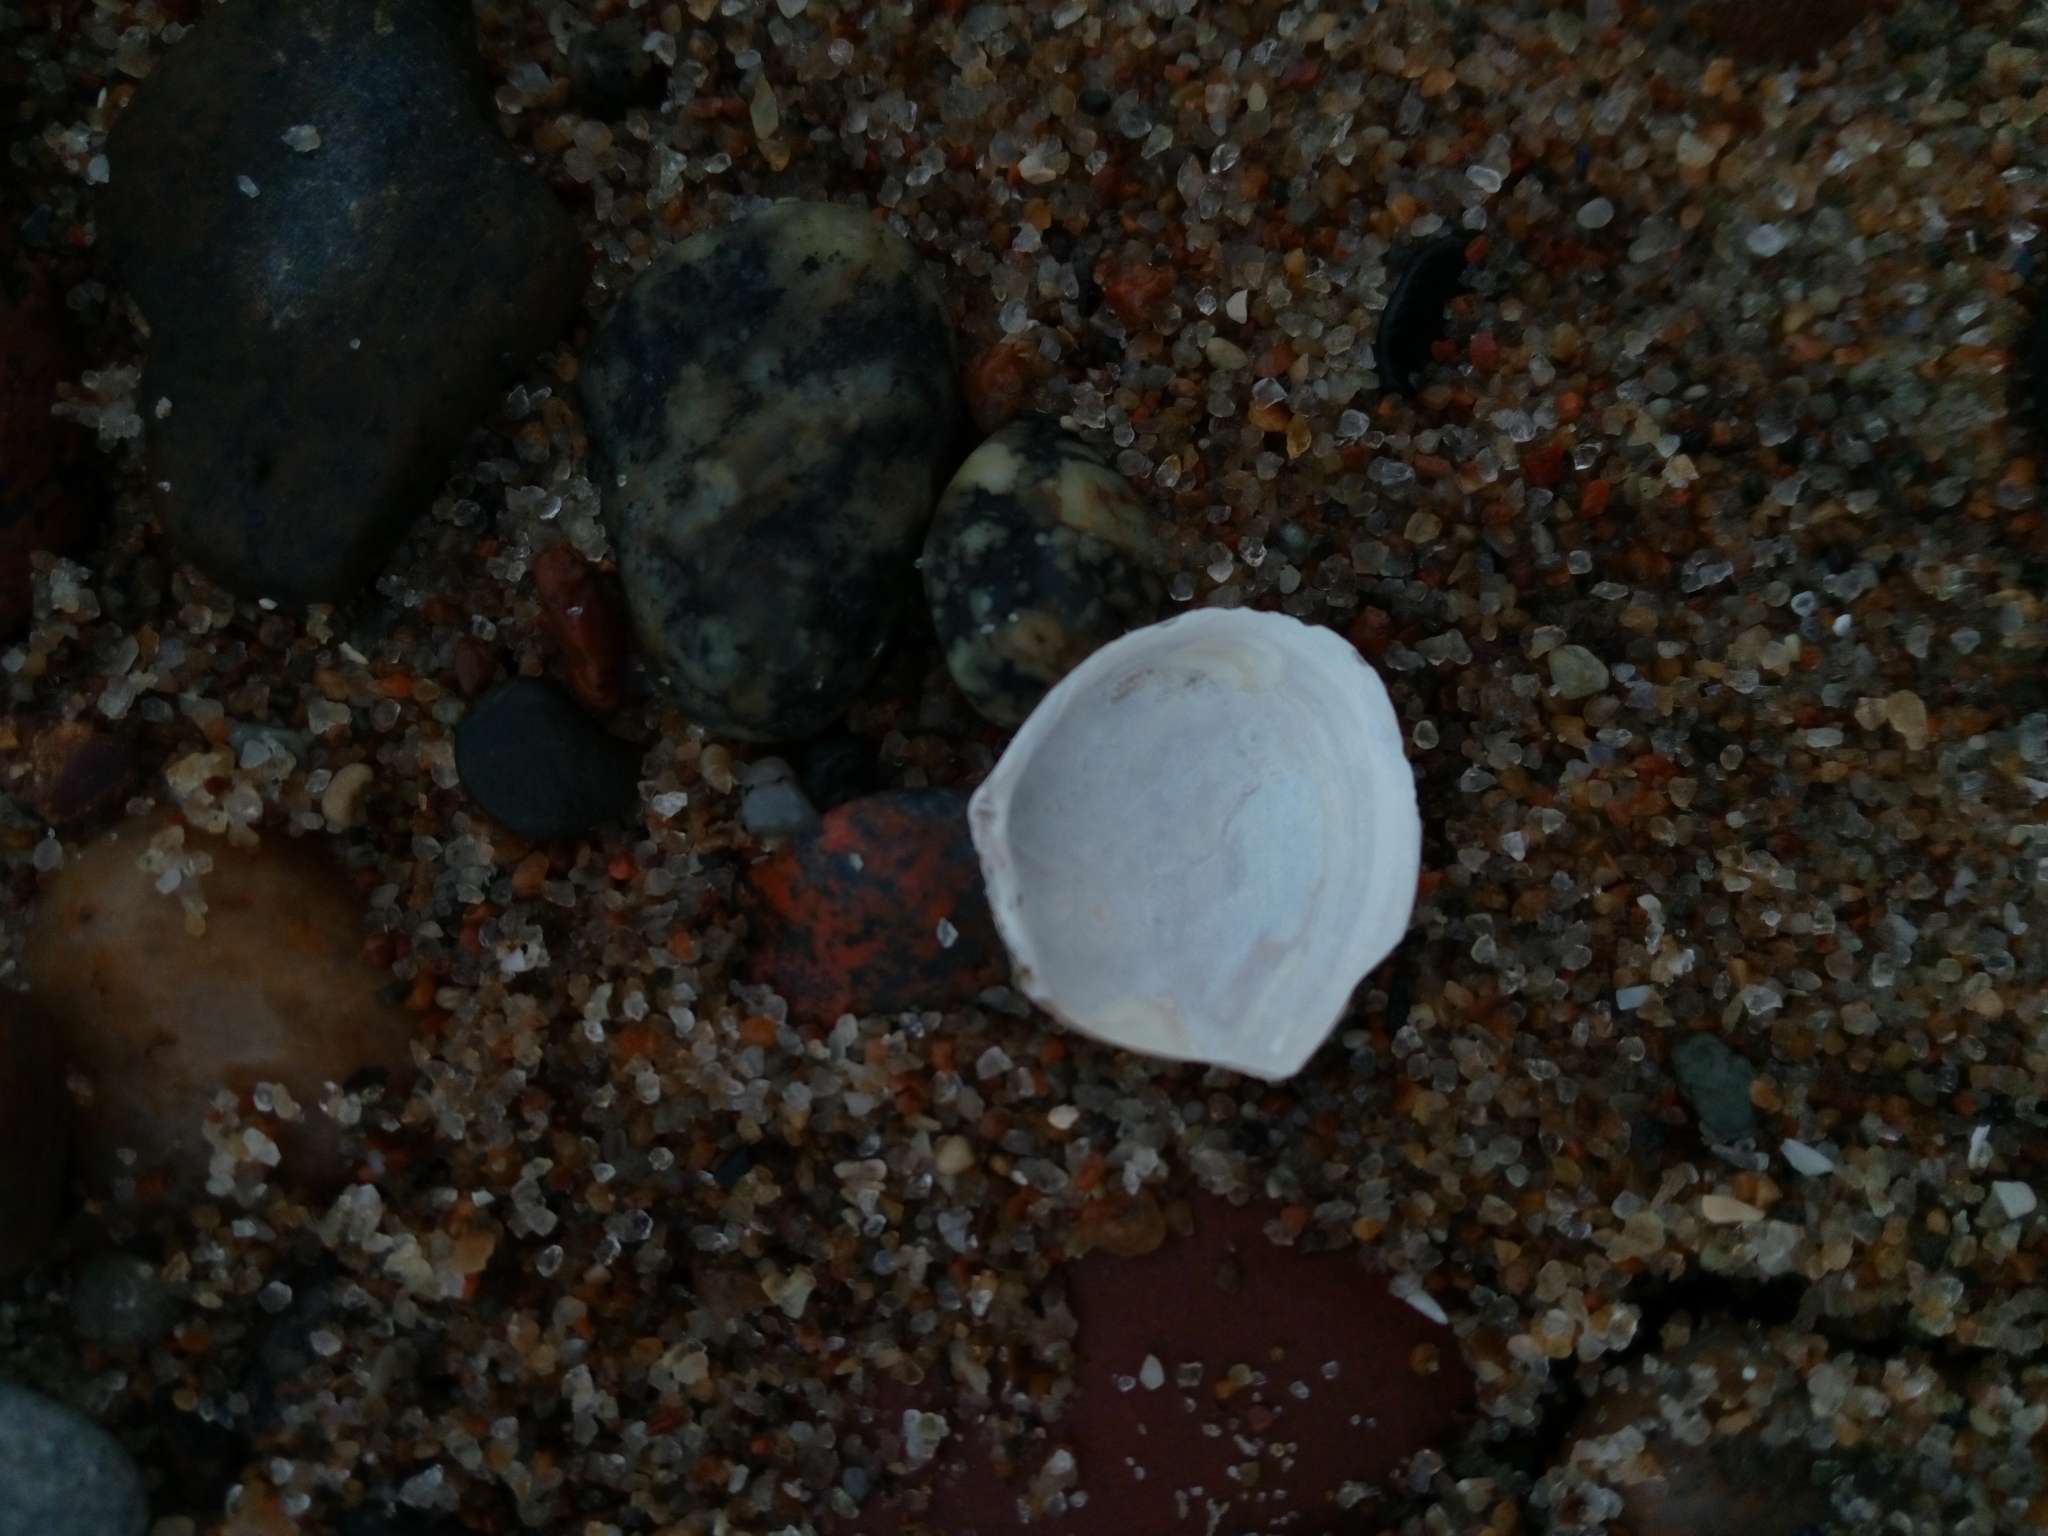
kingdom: Animalia
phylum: Mollusca
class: Bivalvia
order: Cardiida
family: Tellinidae
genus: Macoma
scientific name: Macoma balthica
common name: Baltic tellin
